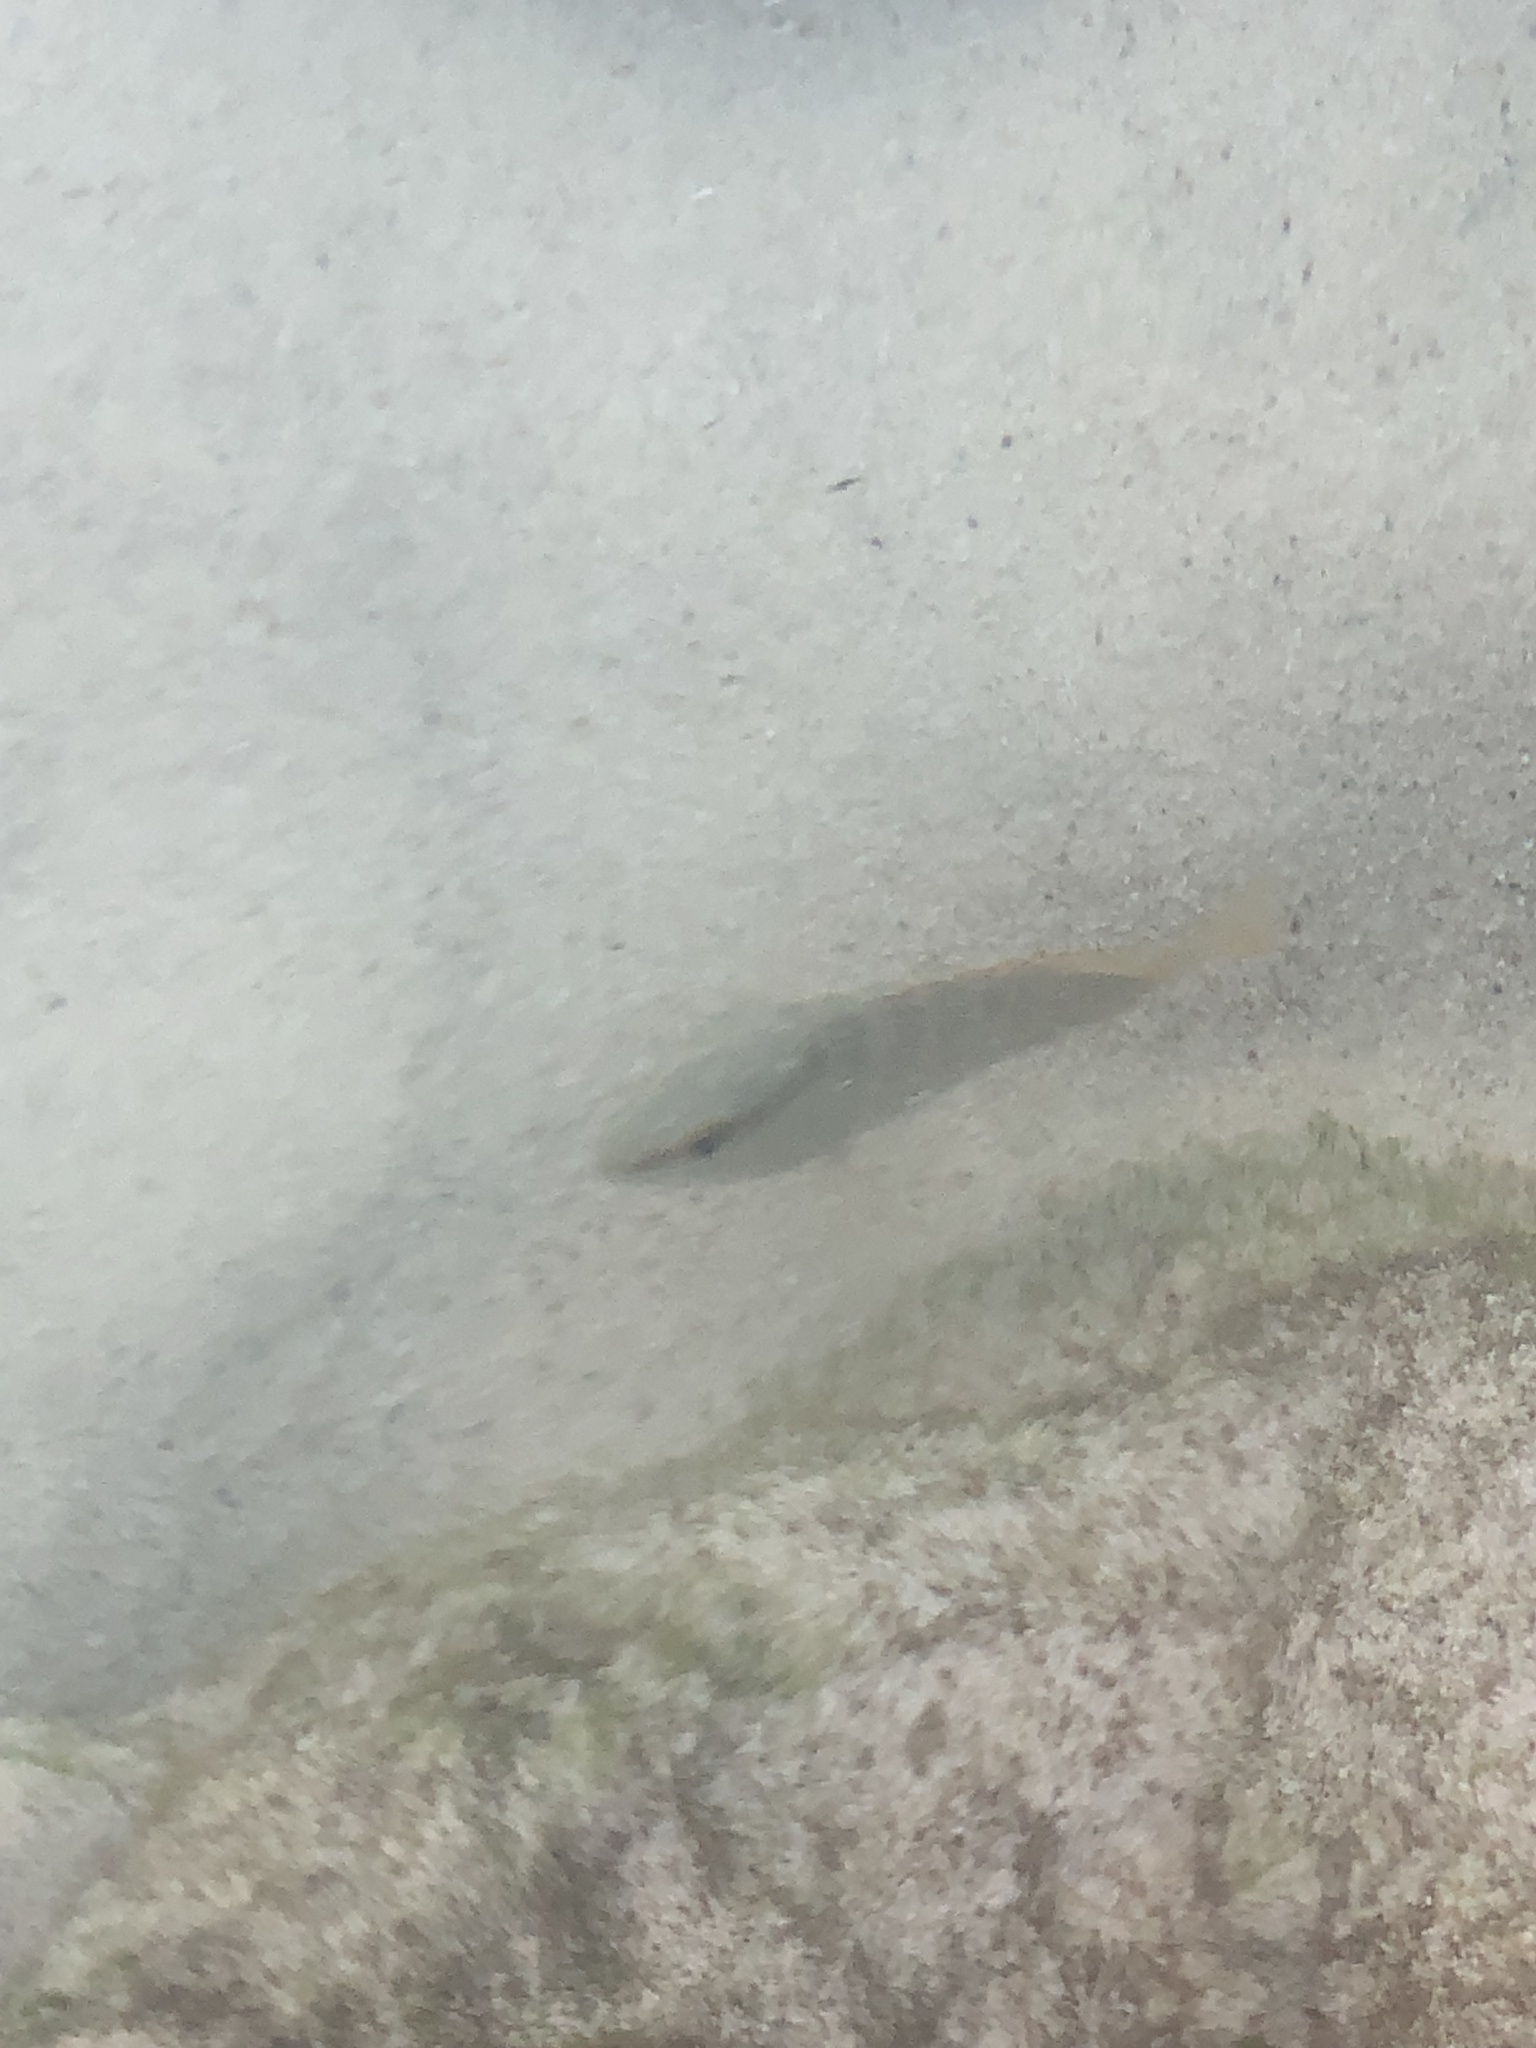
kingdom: Animalia
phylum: Chordata
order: Perciformes
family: Lutjanidae
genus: Lutjanus
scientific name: Lutjanus apodus
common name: Schoolmaster
